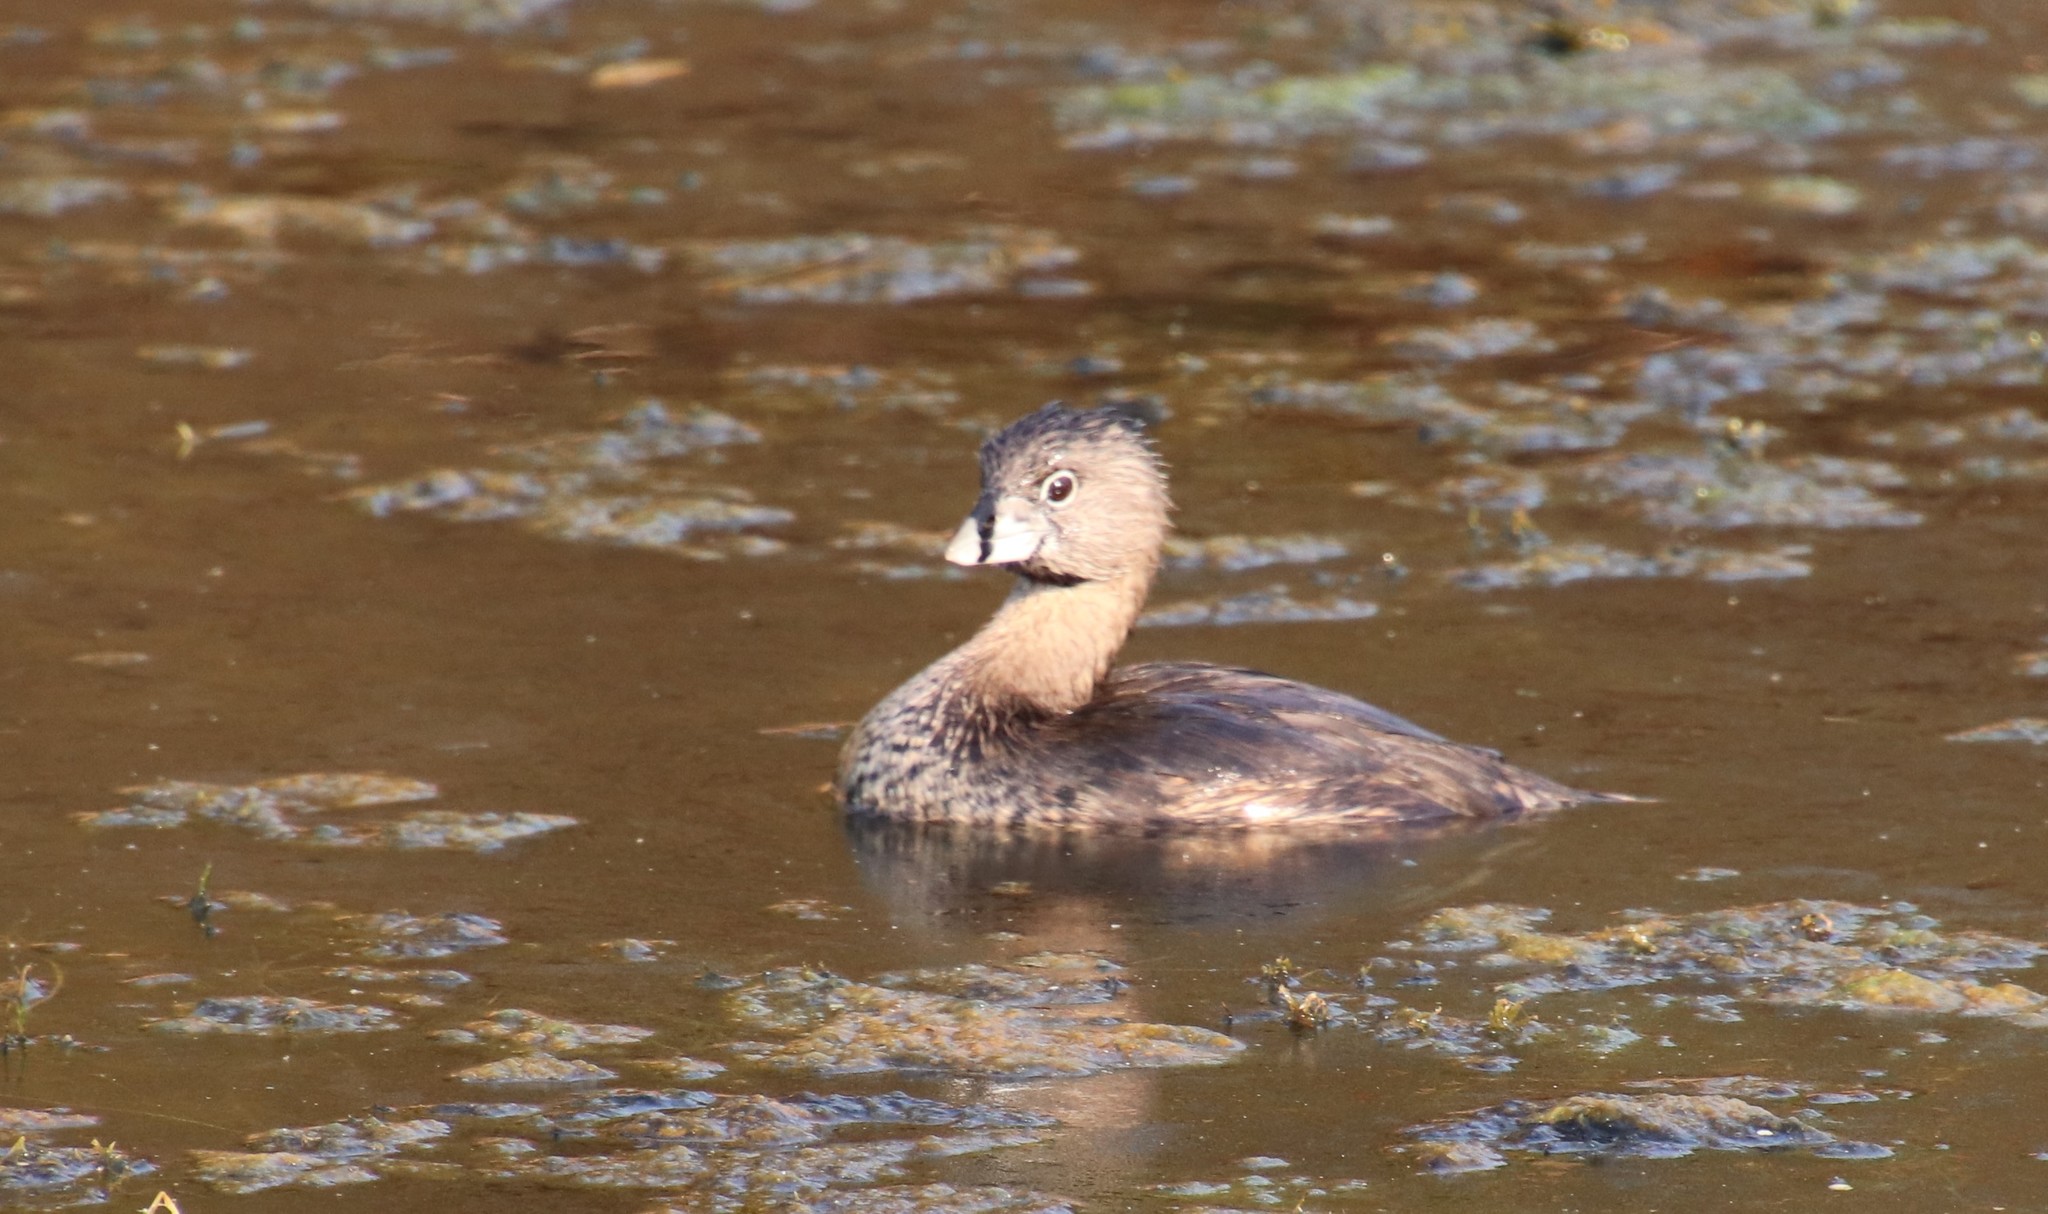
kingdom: Animalia
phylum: Chordata
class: Aves
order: Podicipediformes
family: Podicipedidae
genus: Podilymbus
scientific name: Podilymbus podiceps
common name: Pied-billed grebe
